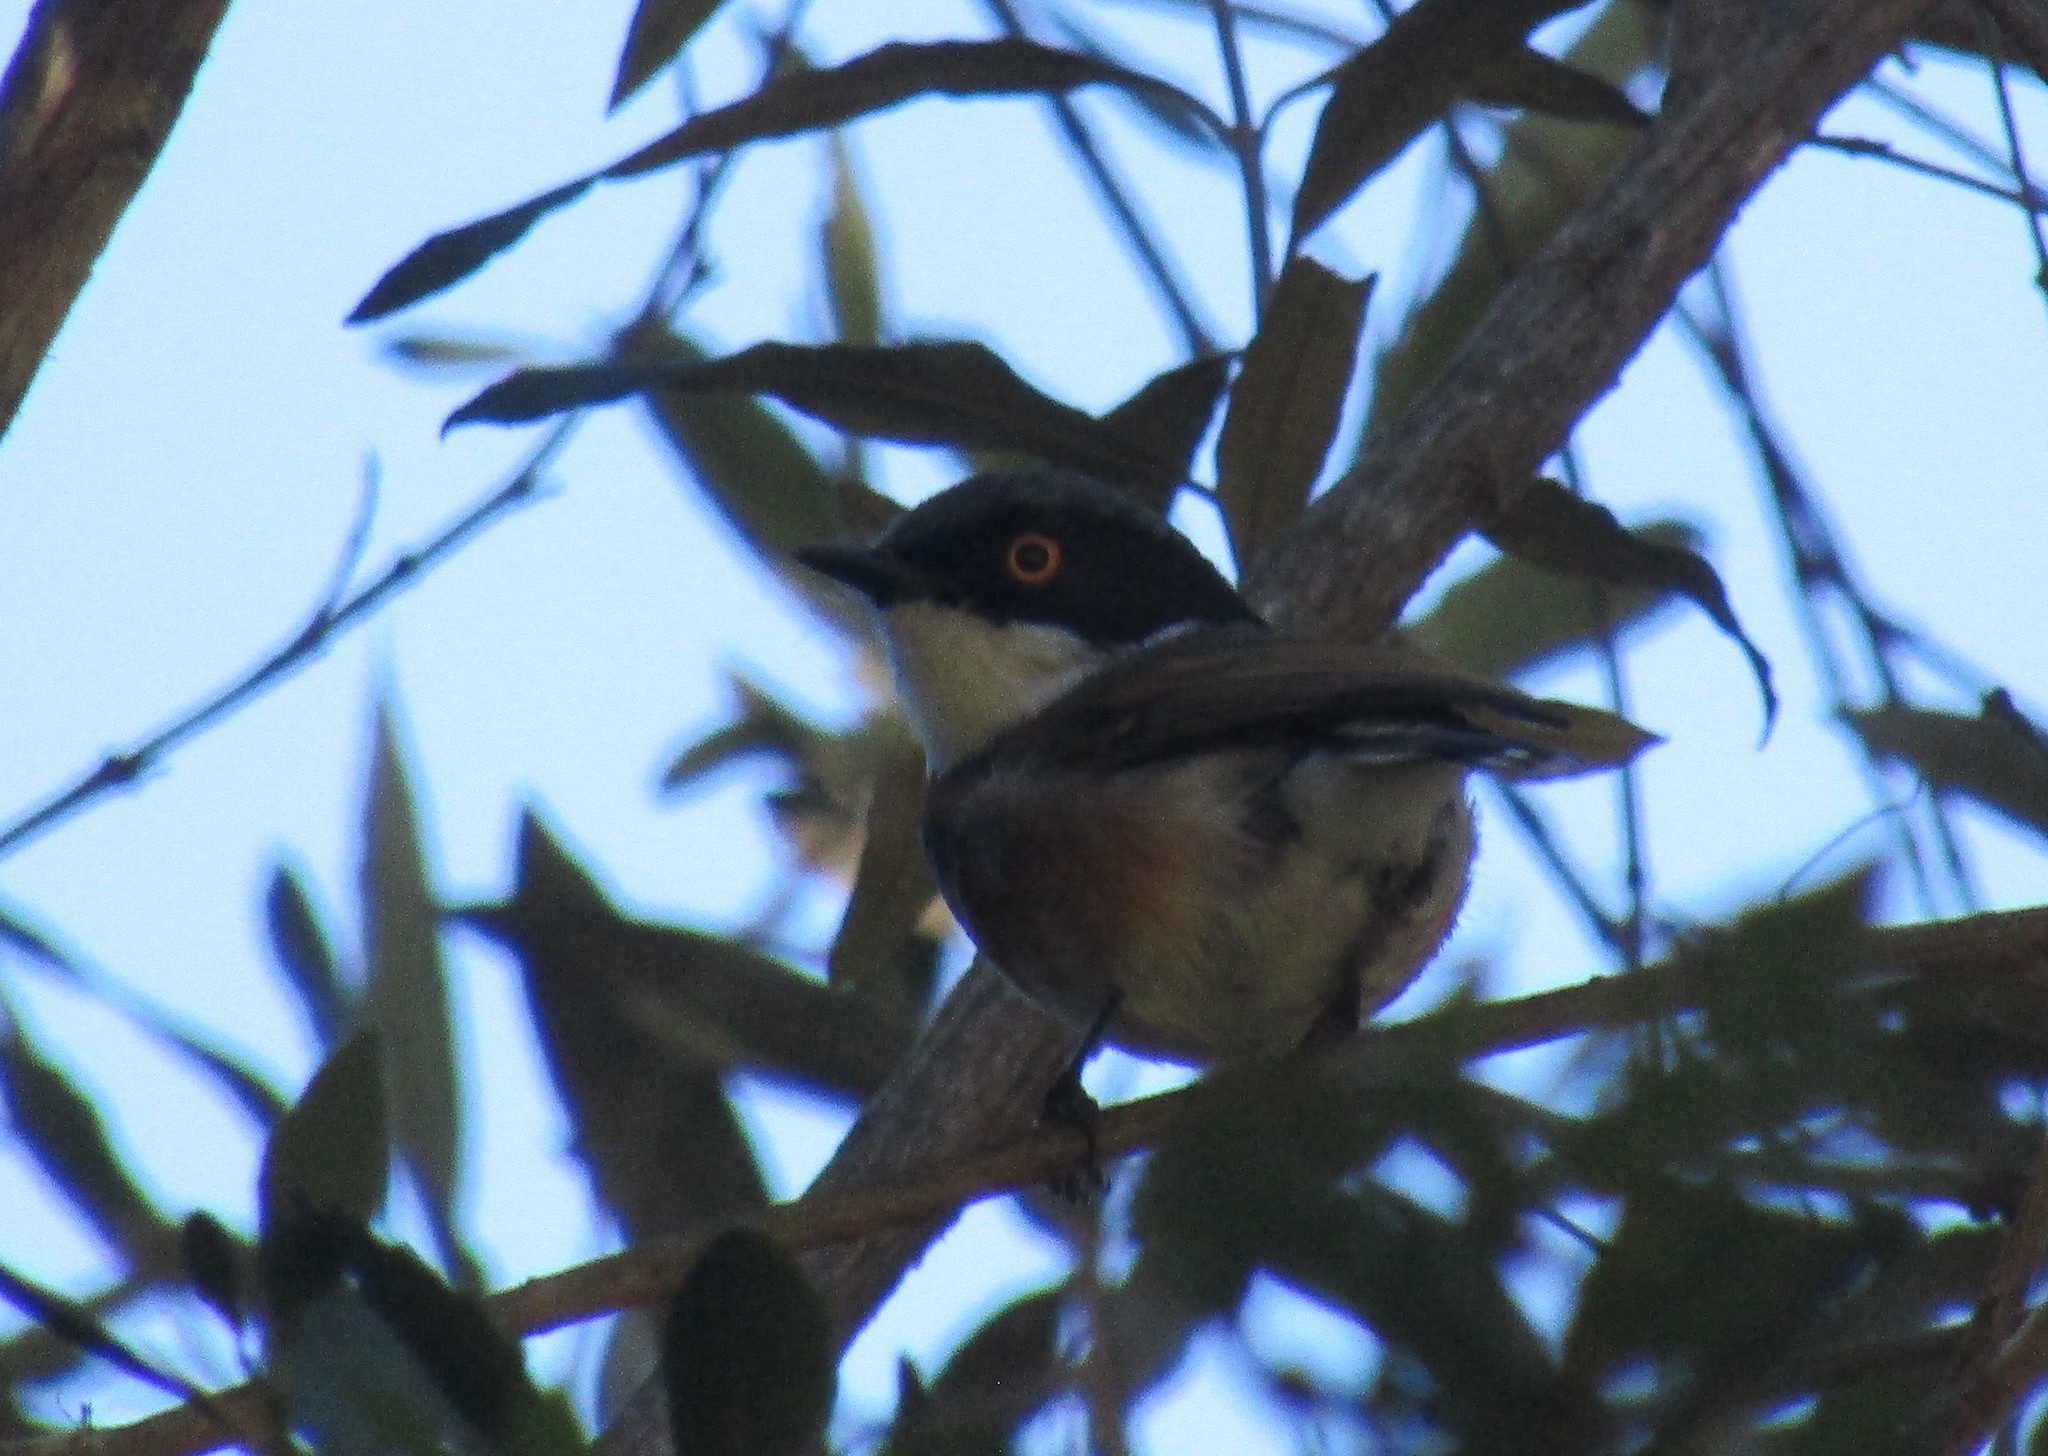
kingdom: Animalia
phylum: Chordata
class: Aves
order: Passeriformes
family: Platysteiridae
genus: Batis
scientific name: Batis capensis
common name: Cape batis
